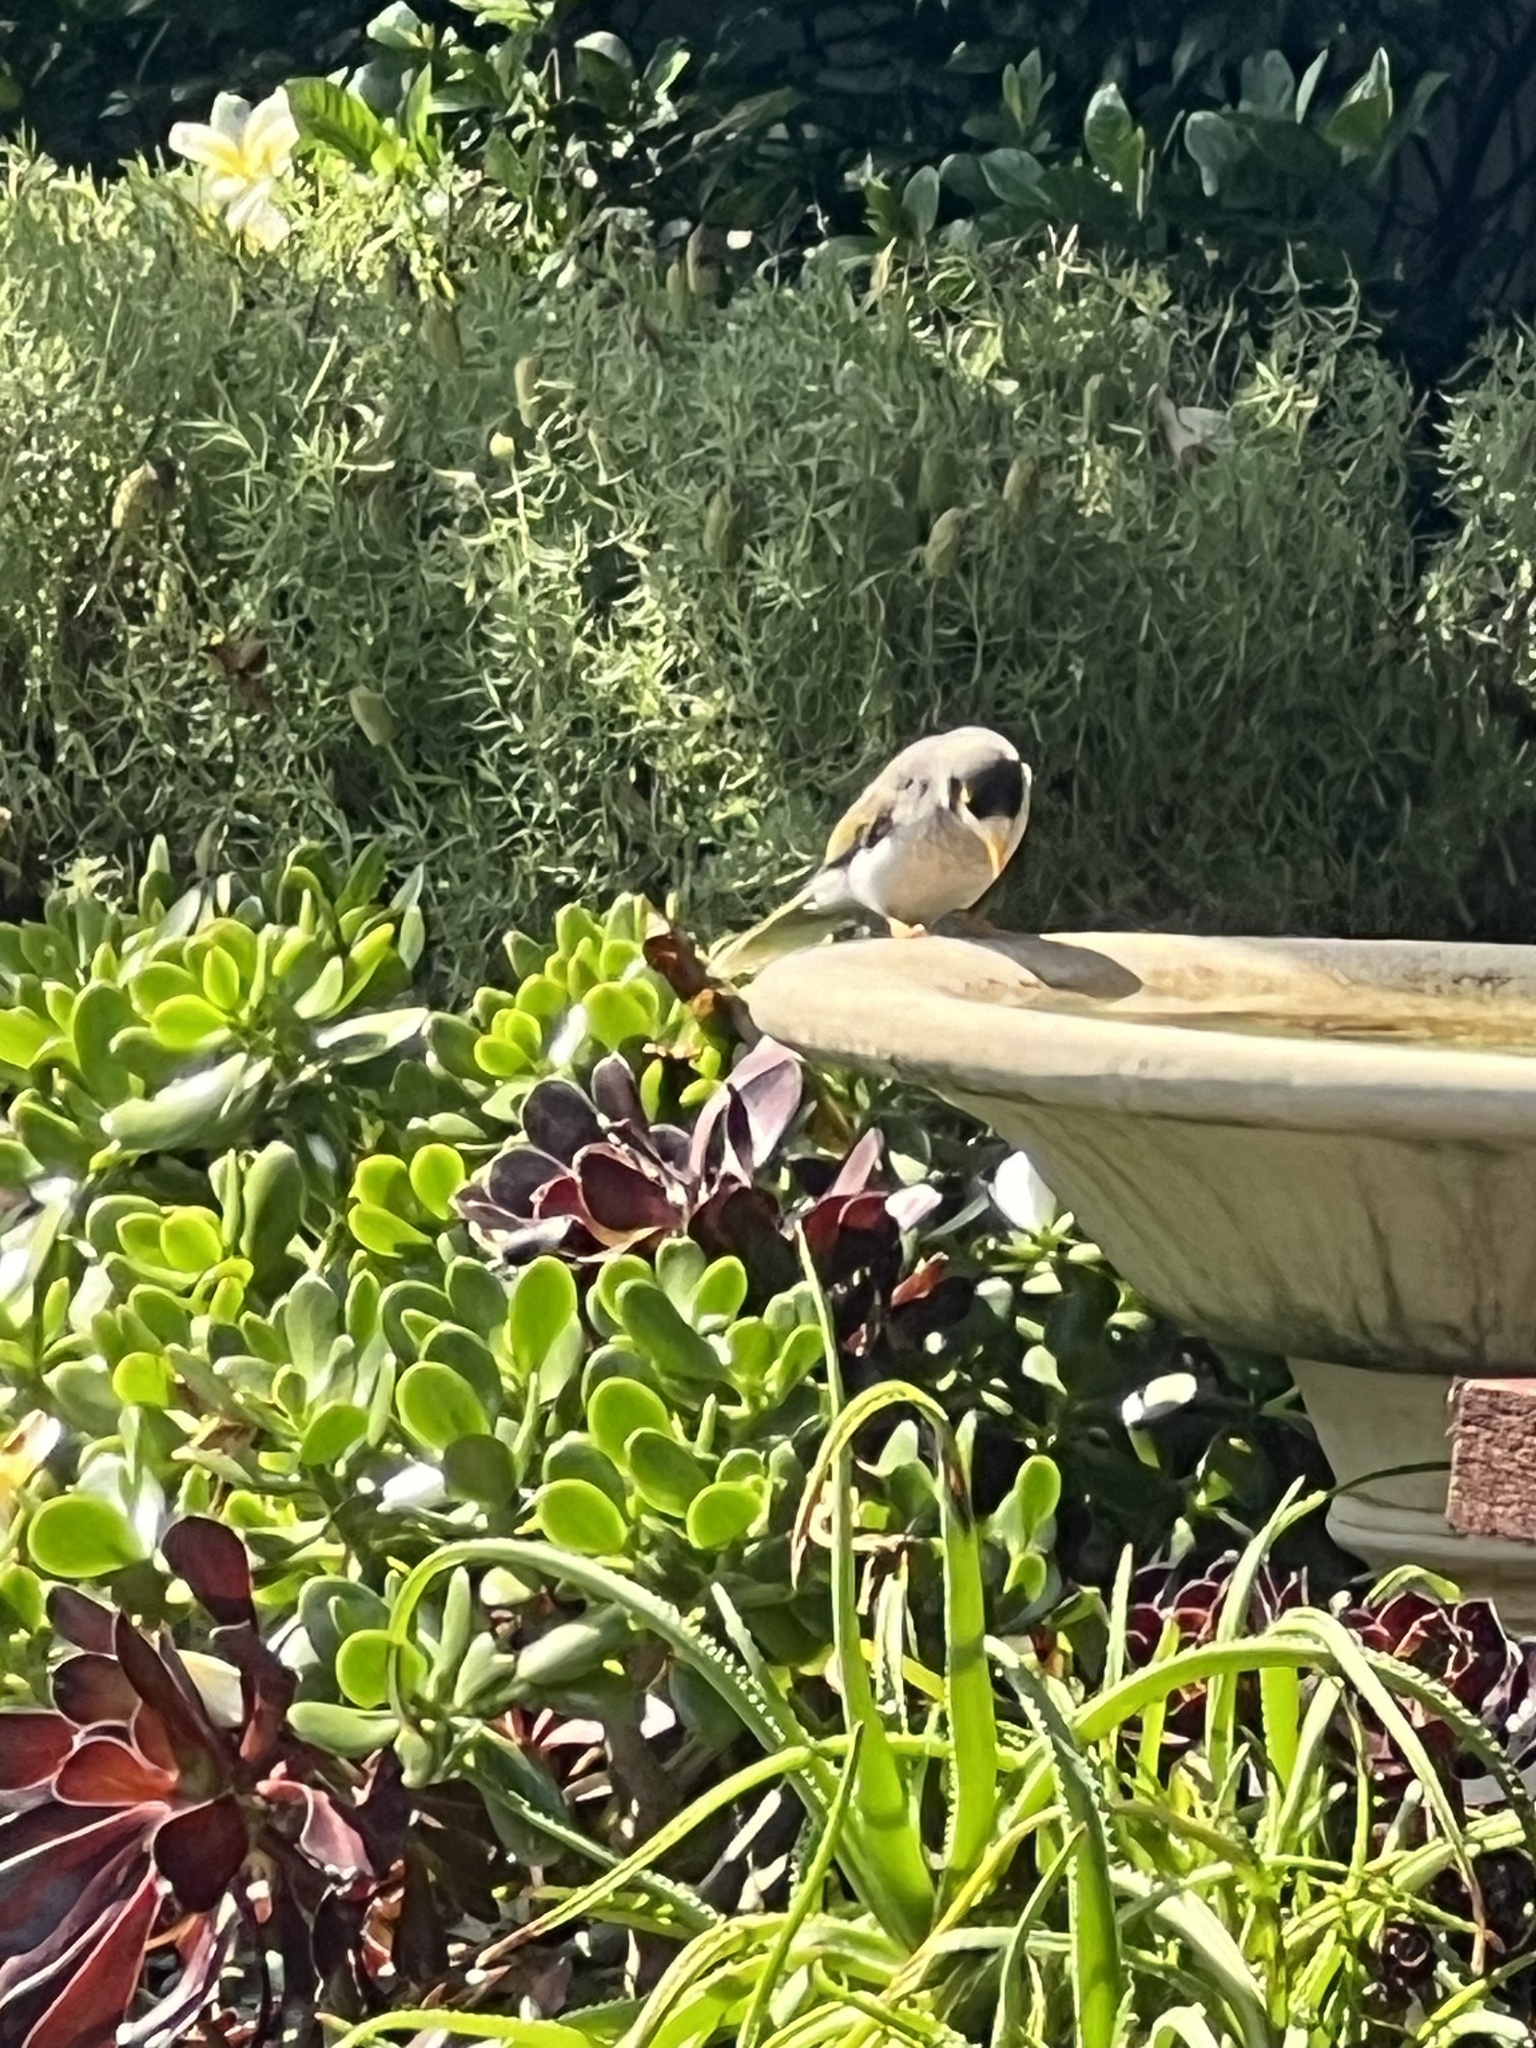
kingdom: Animalia
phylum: Chordata
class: Aves
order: Passeriformes
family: Meliphagidae
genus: Manorina
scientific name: Manorina melanocephala
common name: Noisy miner
